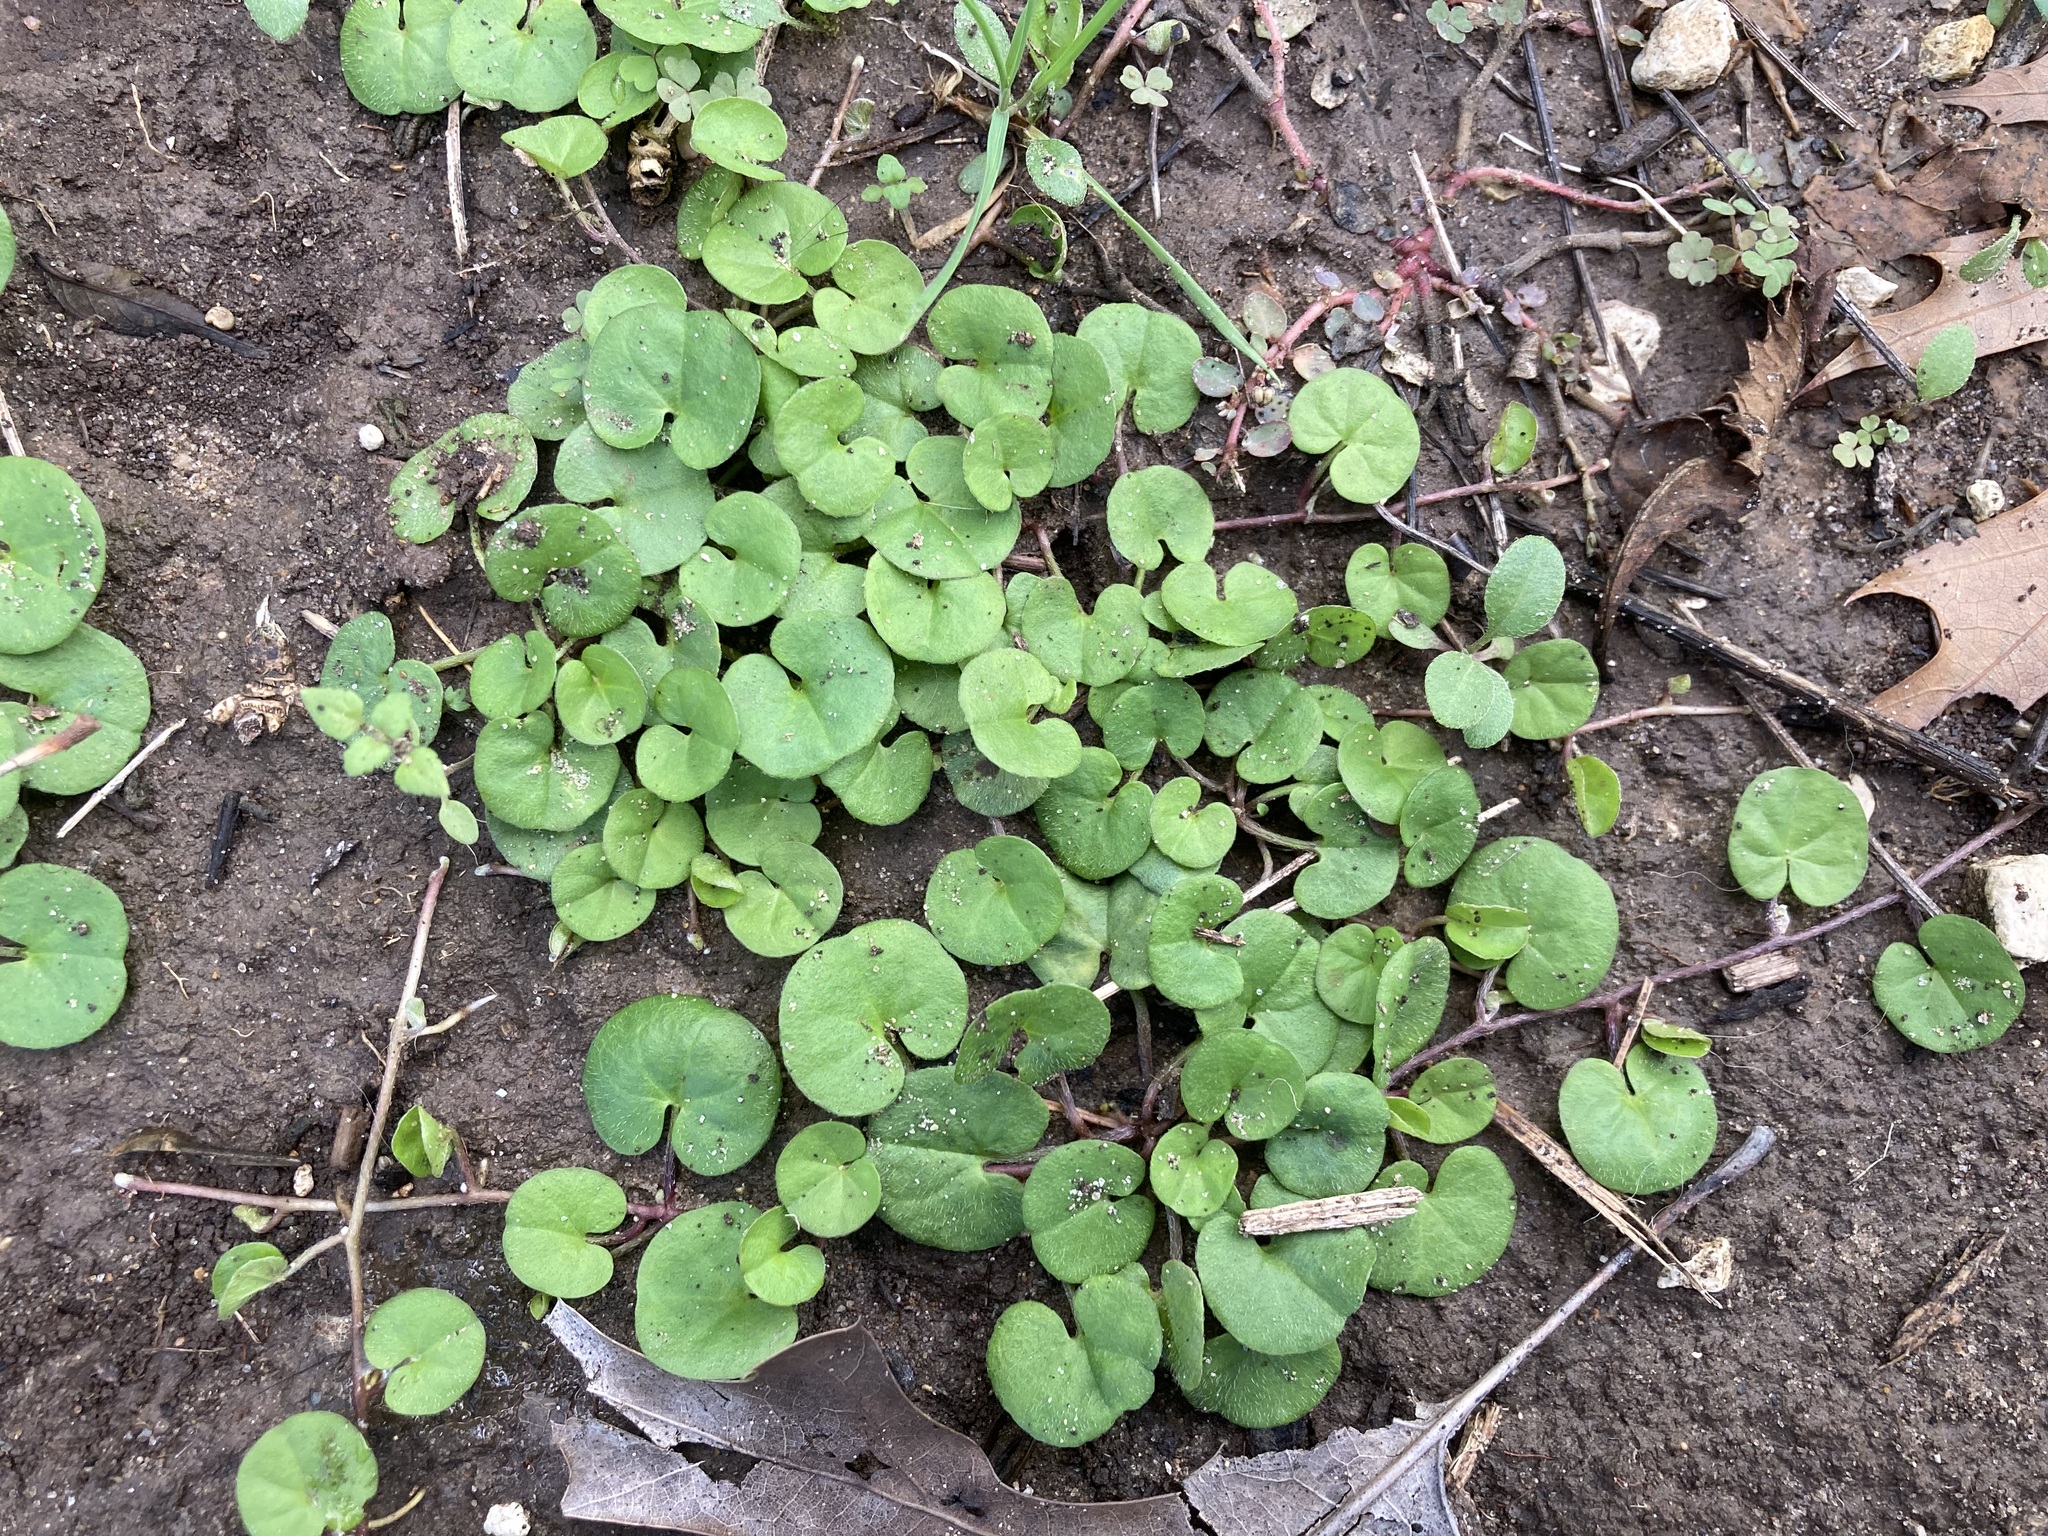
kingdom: Plantae
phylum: Tracheophyta
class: Magnoliopsida
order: Solanales
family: Convolvulaceae
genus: Dichondra
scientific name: Dichondra carolinensis
